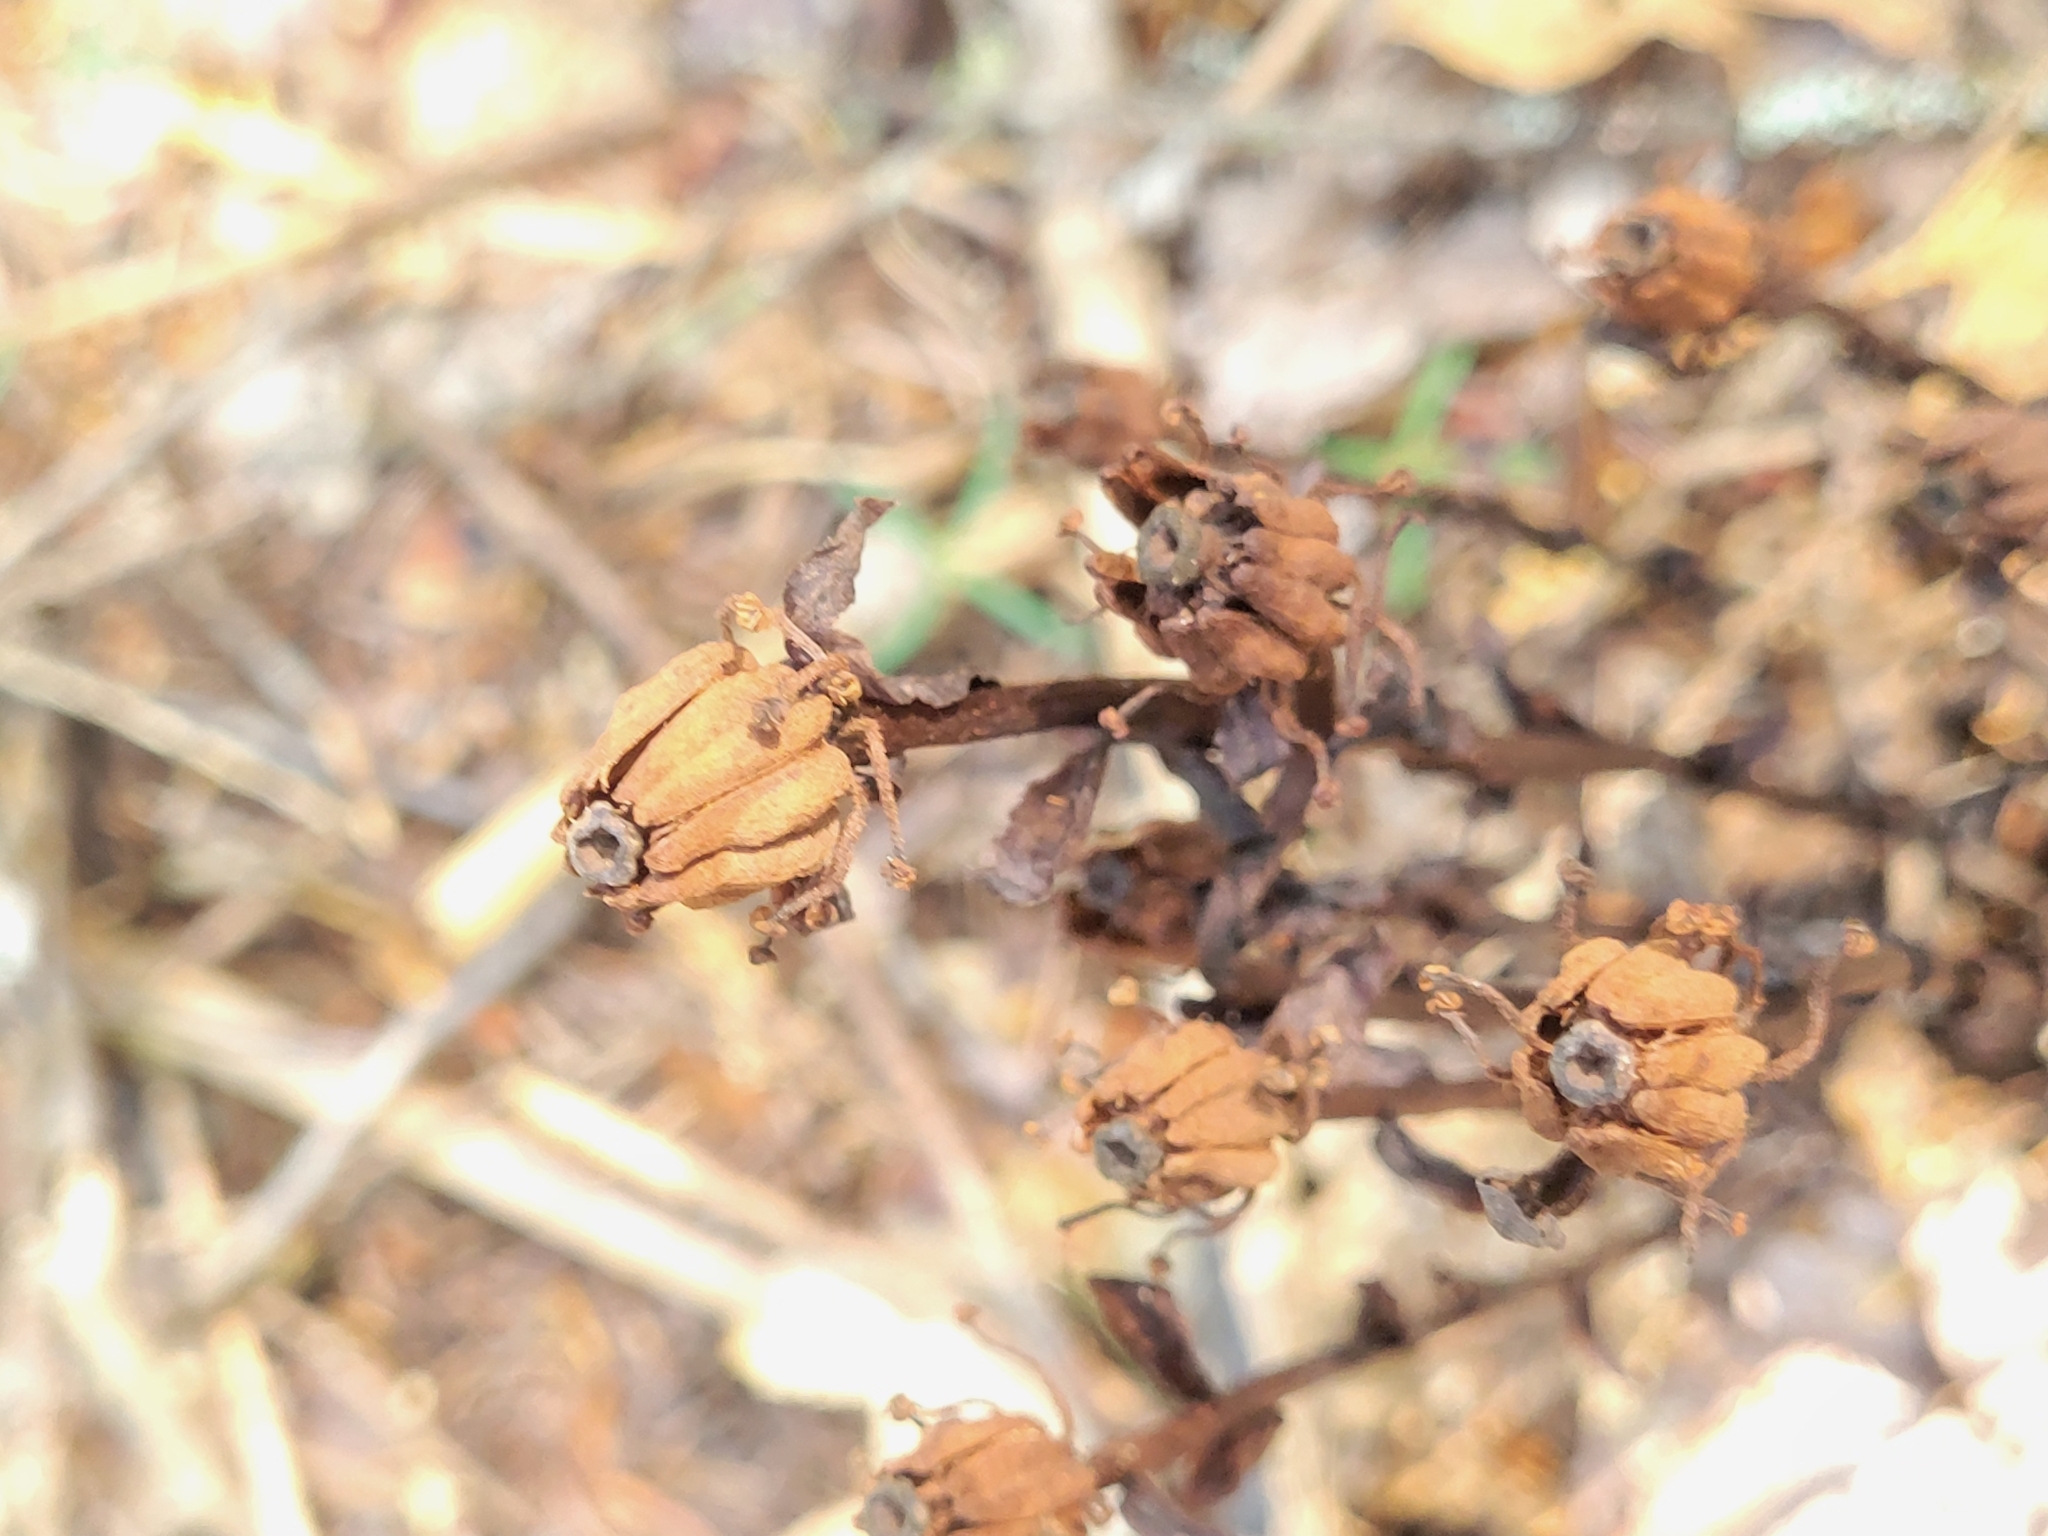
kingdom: Plantae
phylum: Tracheophyta
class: Magnoliopsida
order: Ericales
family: Ericaceae
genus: Monotropa
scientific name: Monotropa uniflora
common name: Convulsion root
